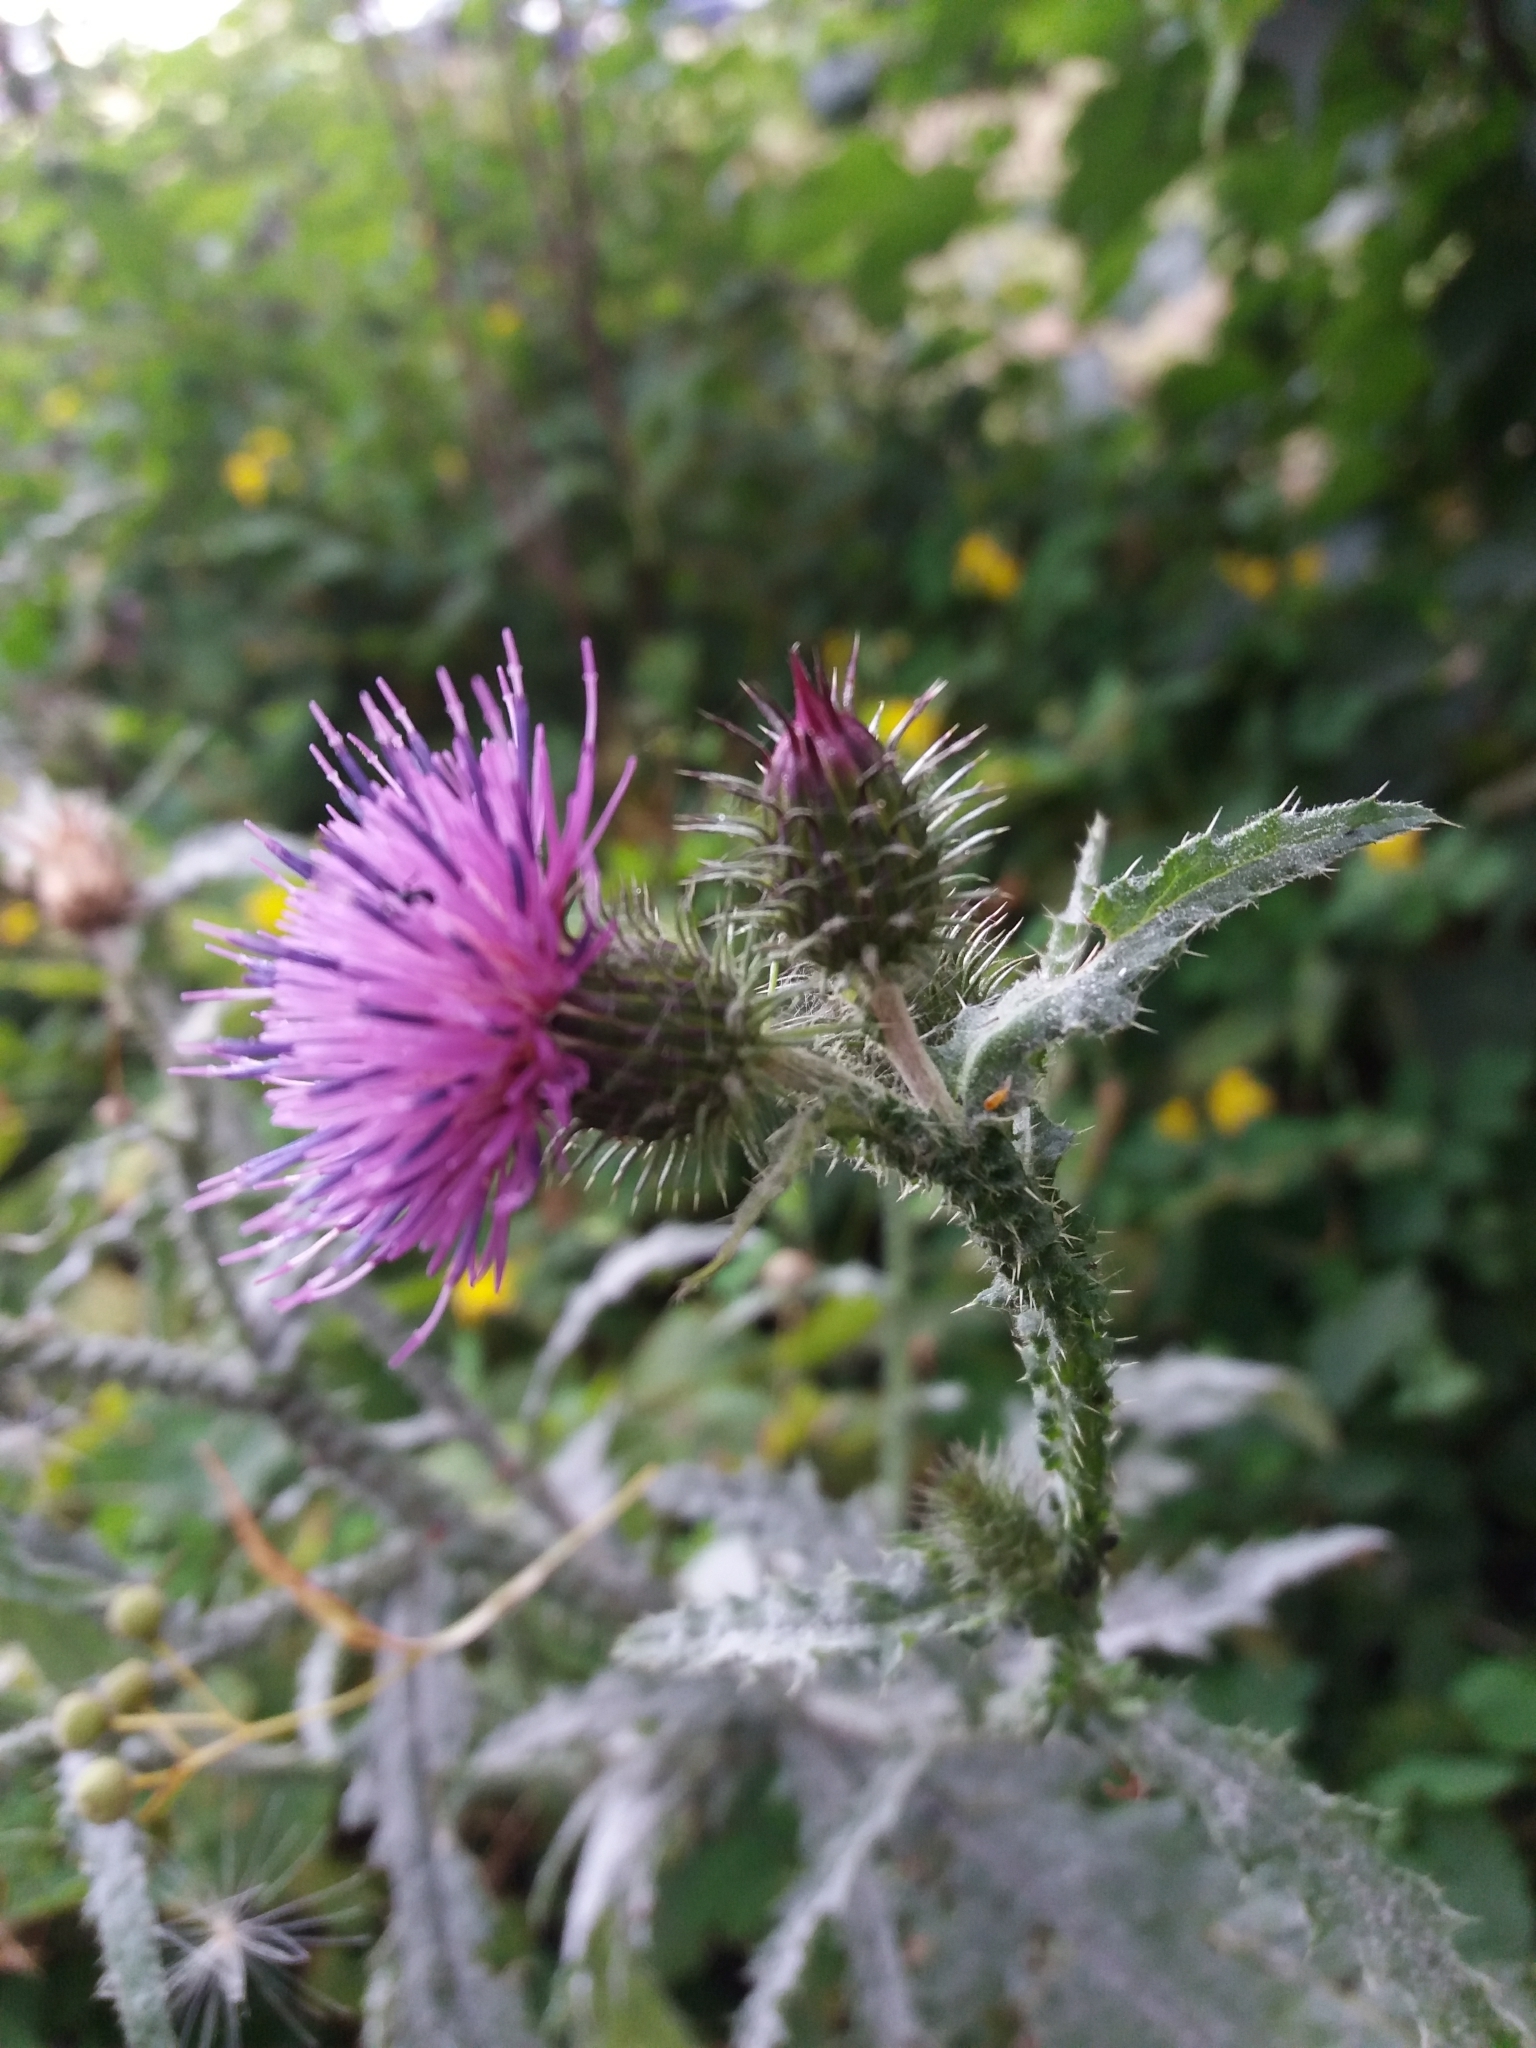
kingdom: Plantae
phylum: Tracheophyta
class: Magnoliopsida
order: Asterales
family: Asteraceae
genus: Carduus
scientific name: Carduus crispus
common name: Welted thistle
